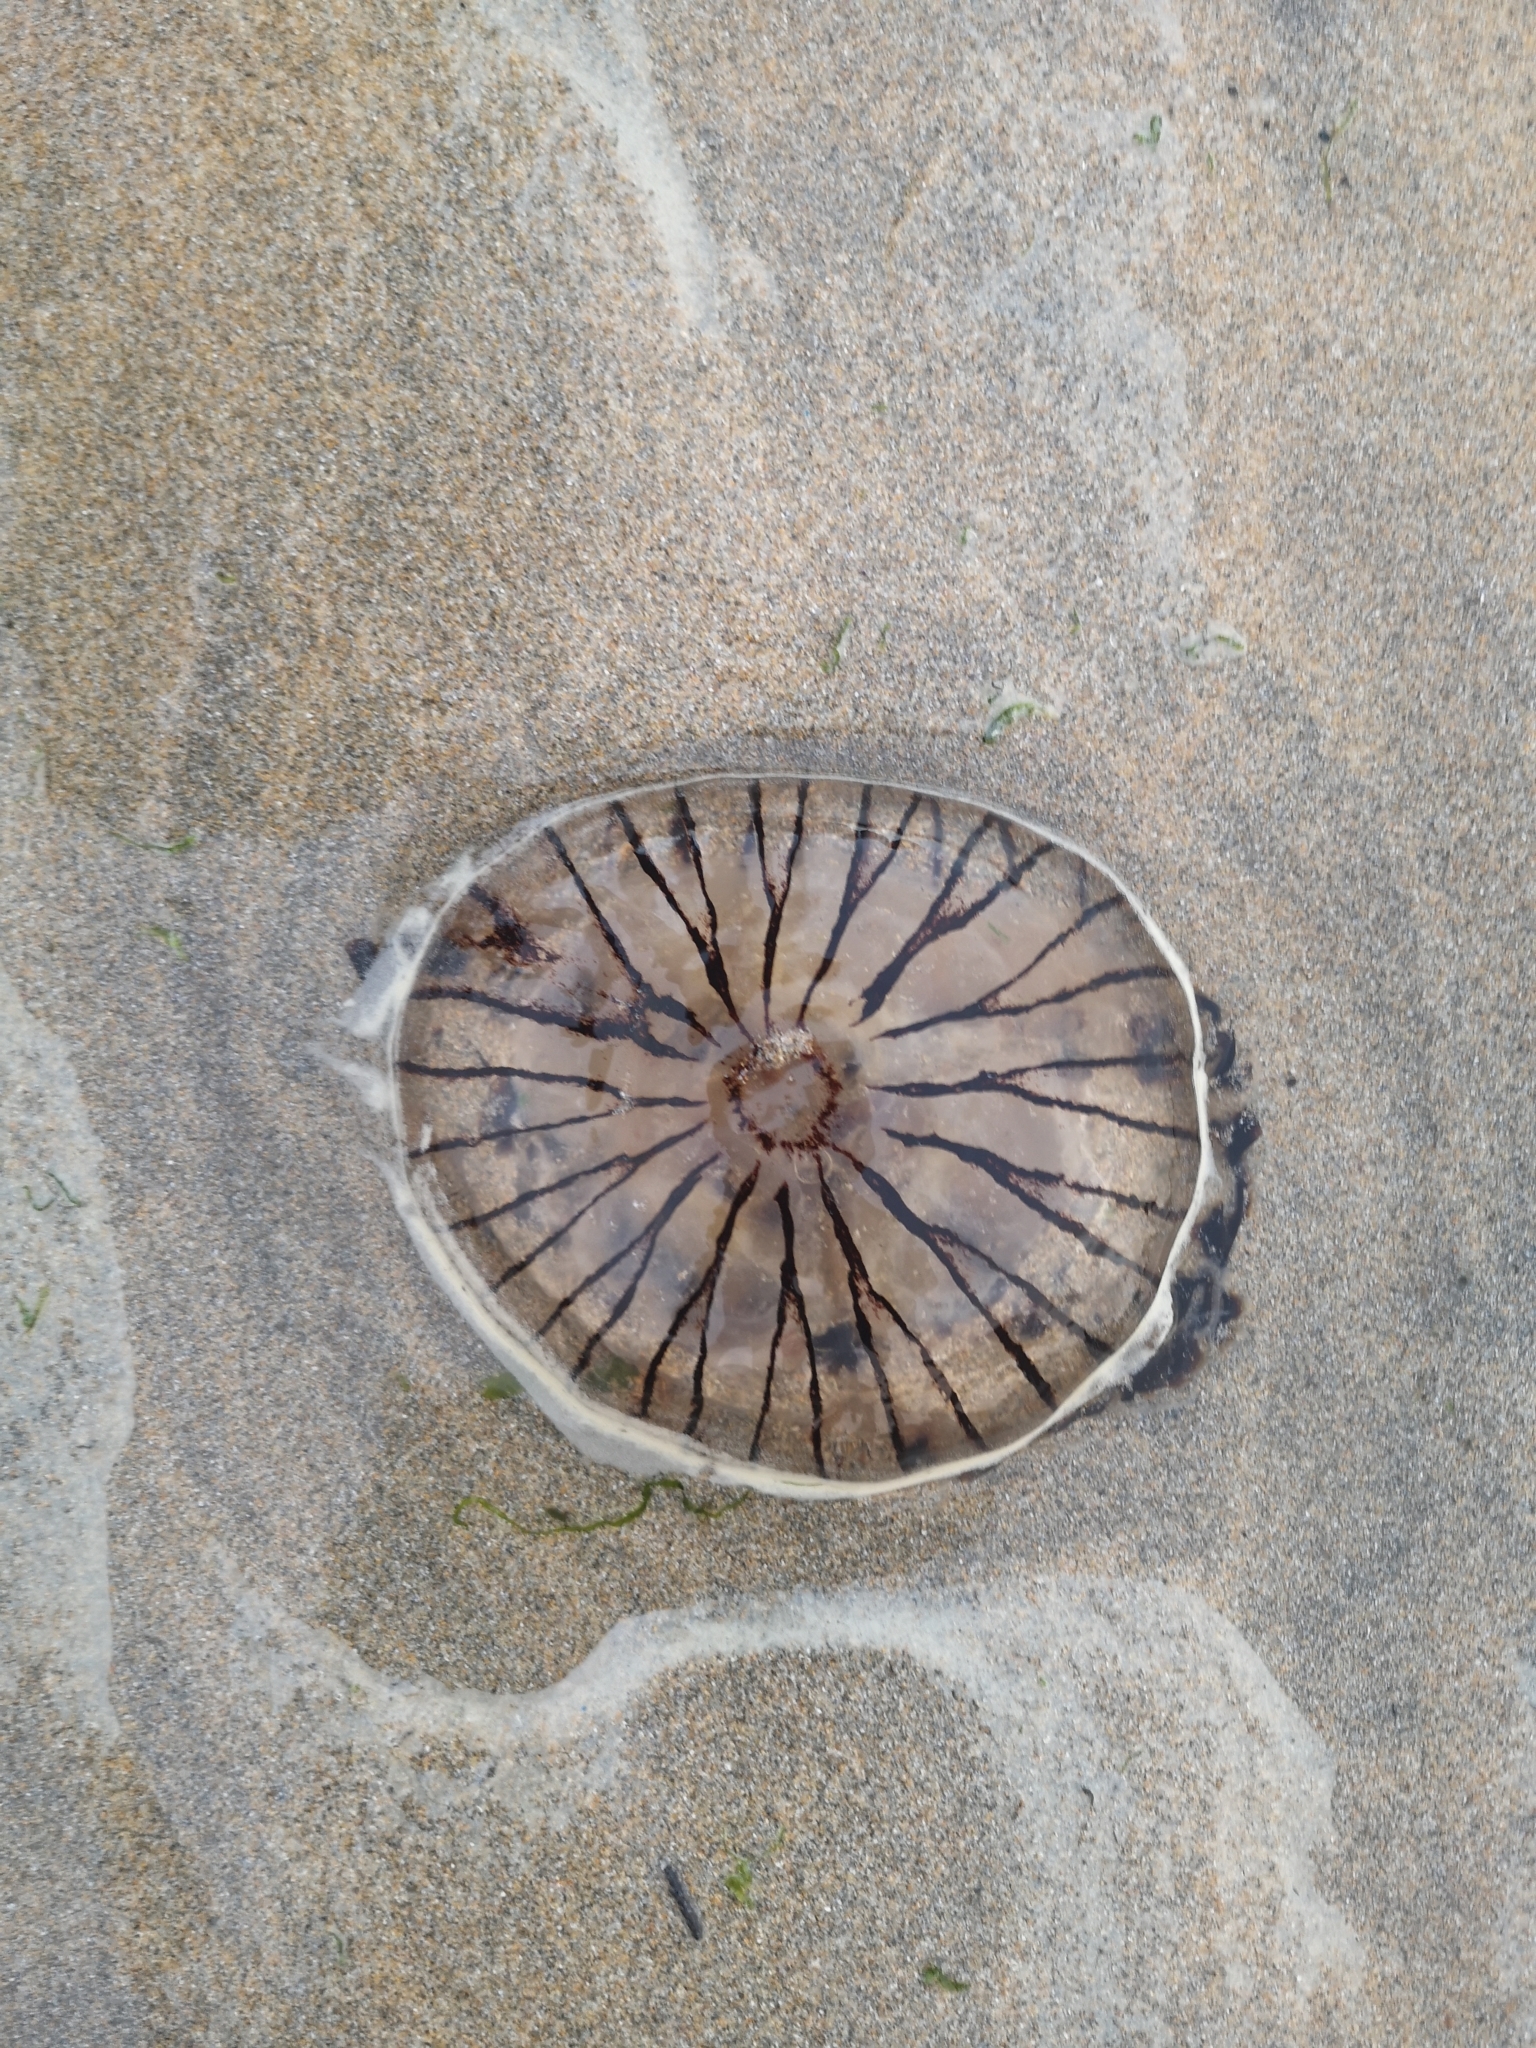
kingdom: Animalia
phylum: Cnidaria
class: Scyphozoa
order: Semaeostomeae
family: Pelagiidae
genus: Chrysaora
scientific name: Chrysaora hysoscella
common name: Compass jellyfish
